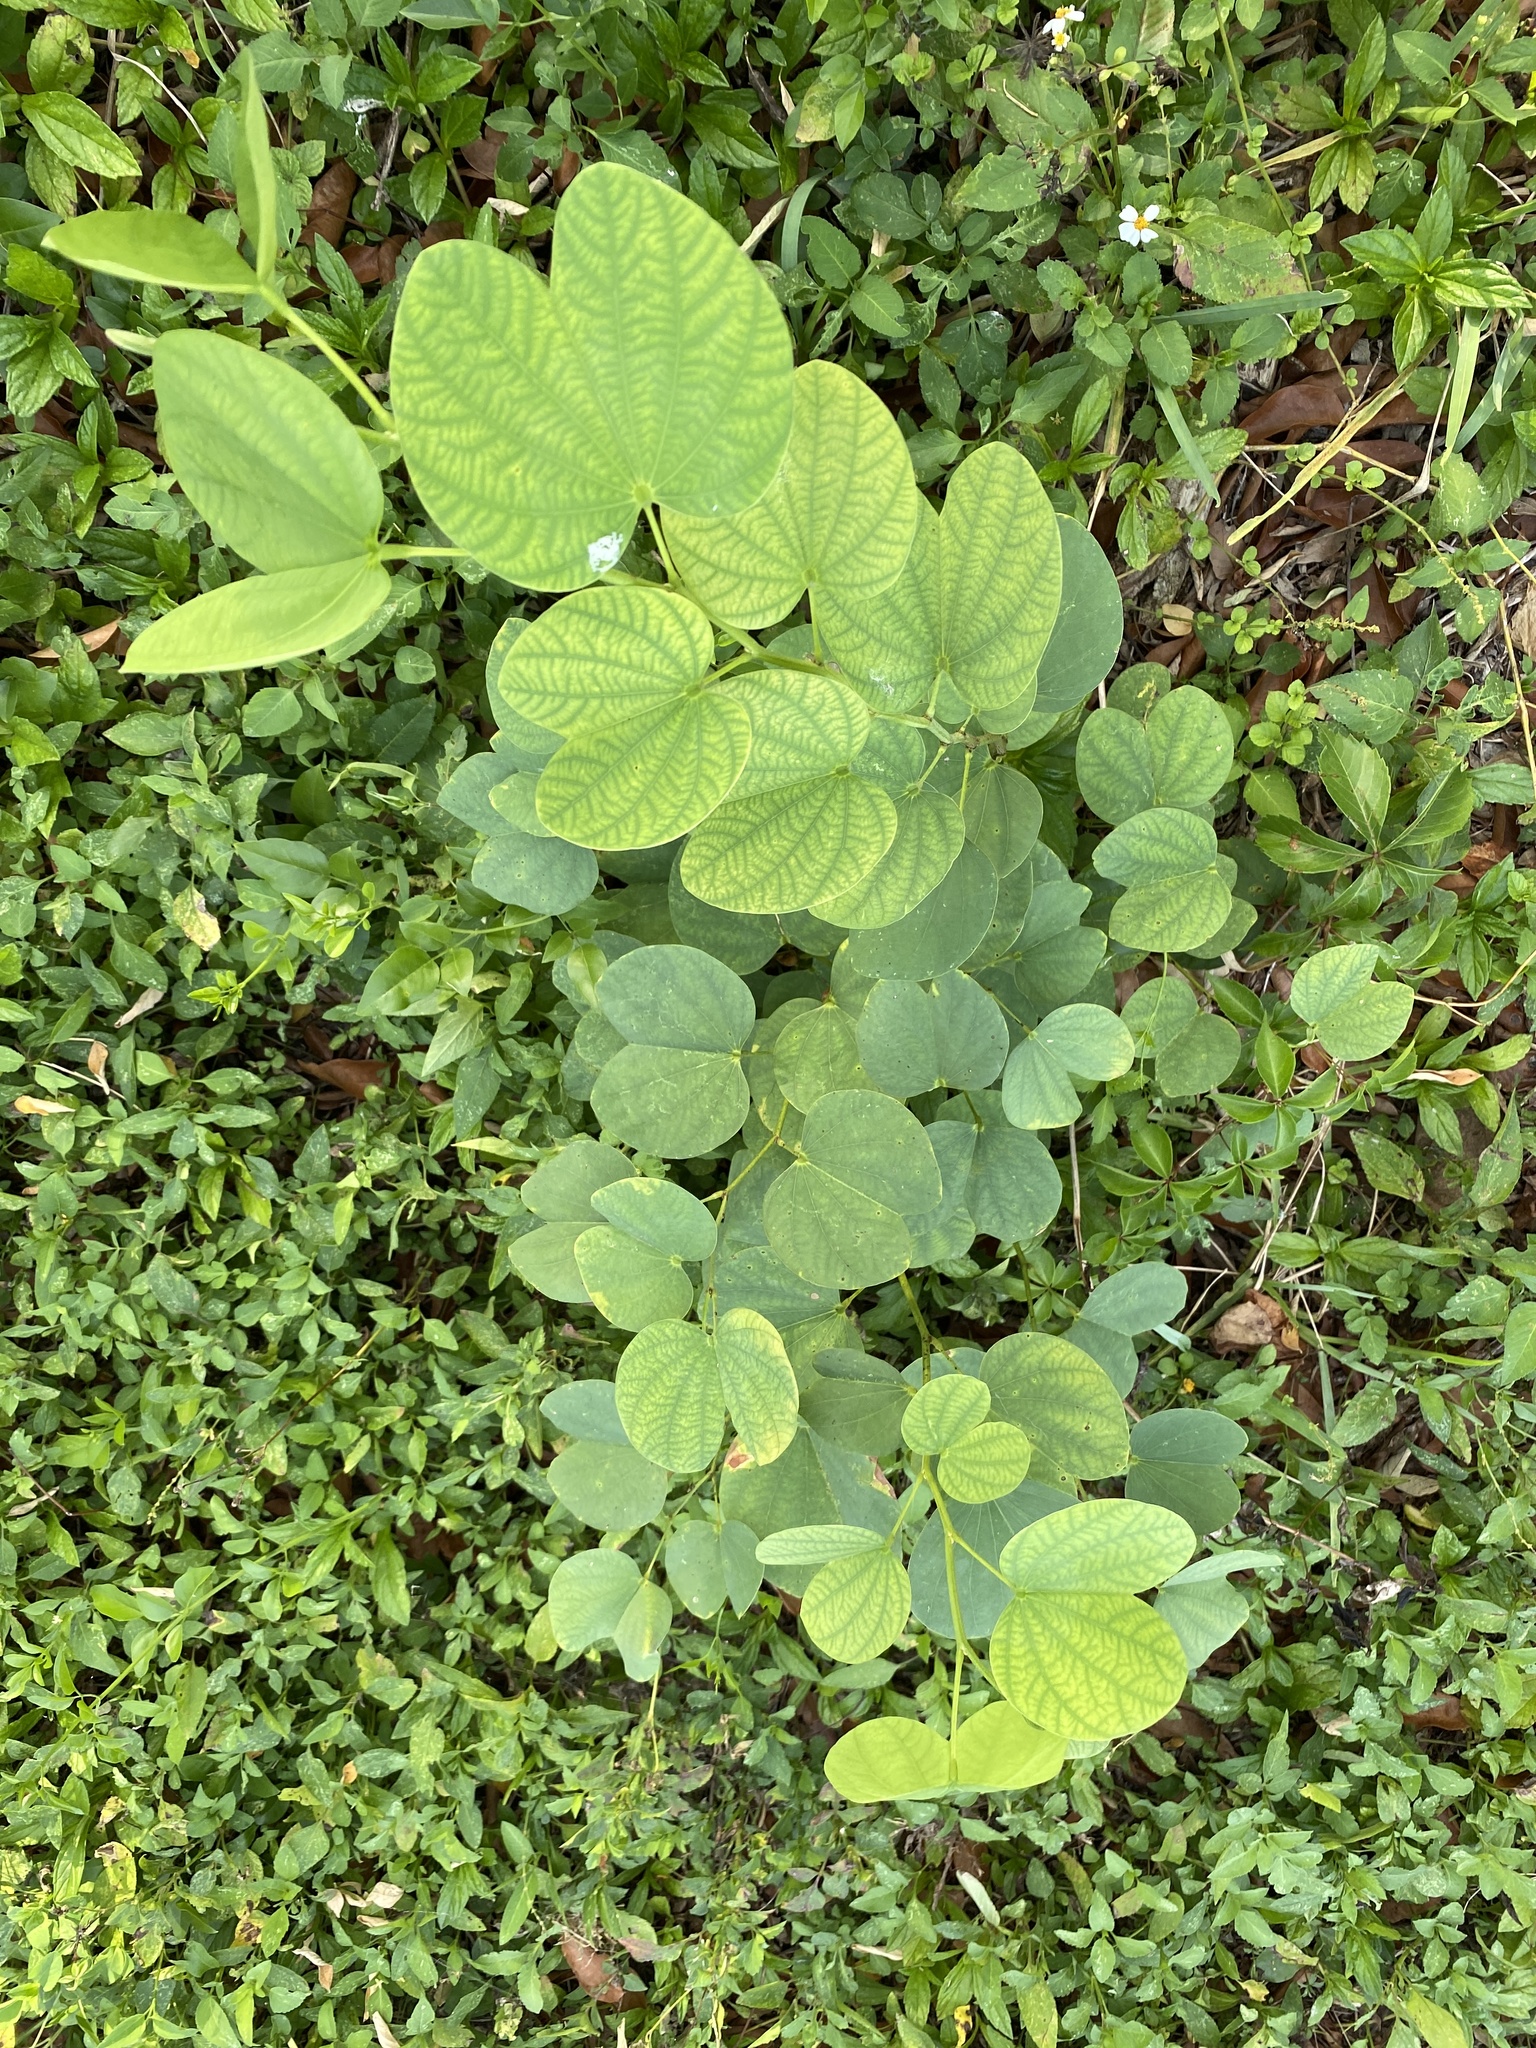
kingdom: Plantae
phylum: Tracheophyta
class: Magnoliopsida
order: Fabales
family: Fabaceae
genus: Bauhinia
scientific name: Bauhinia purpurea
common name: Butterfly-tree
